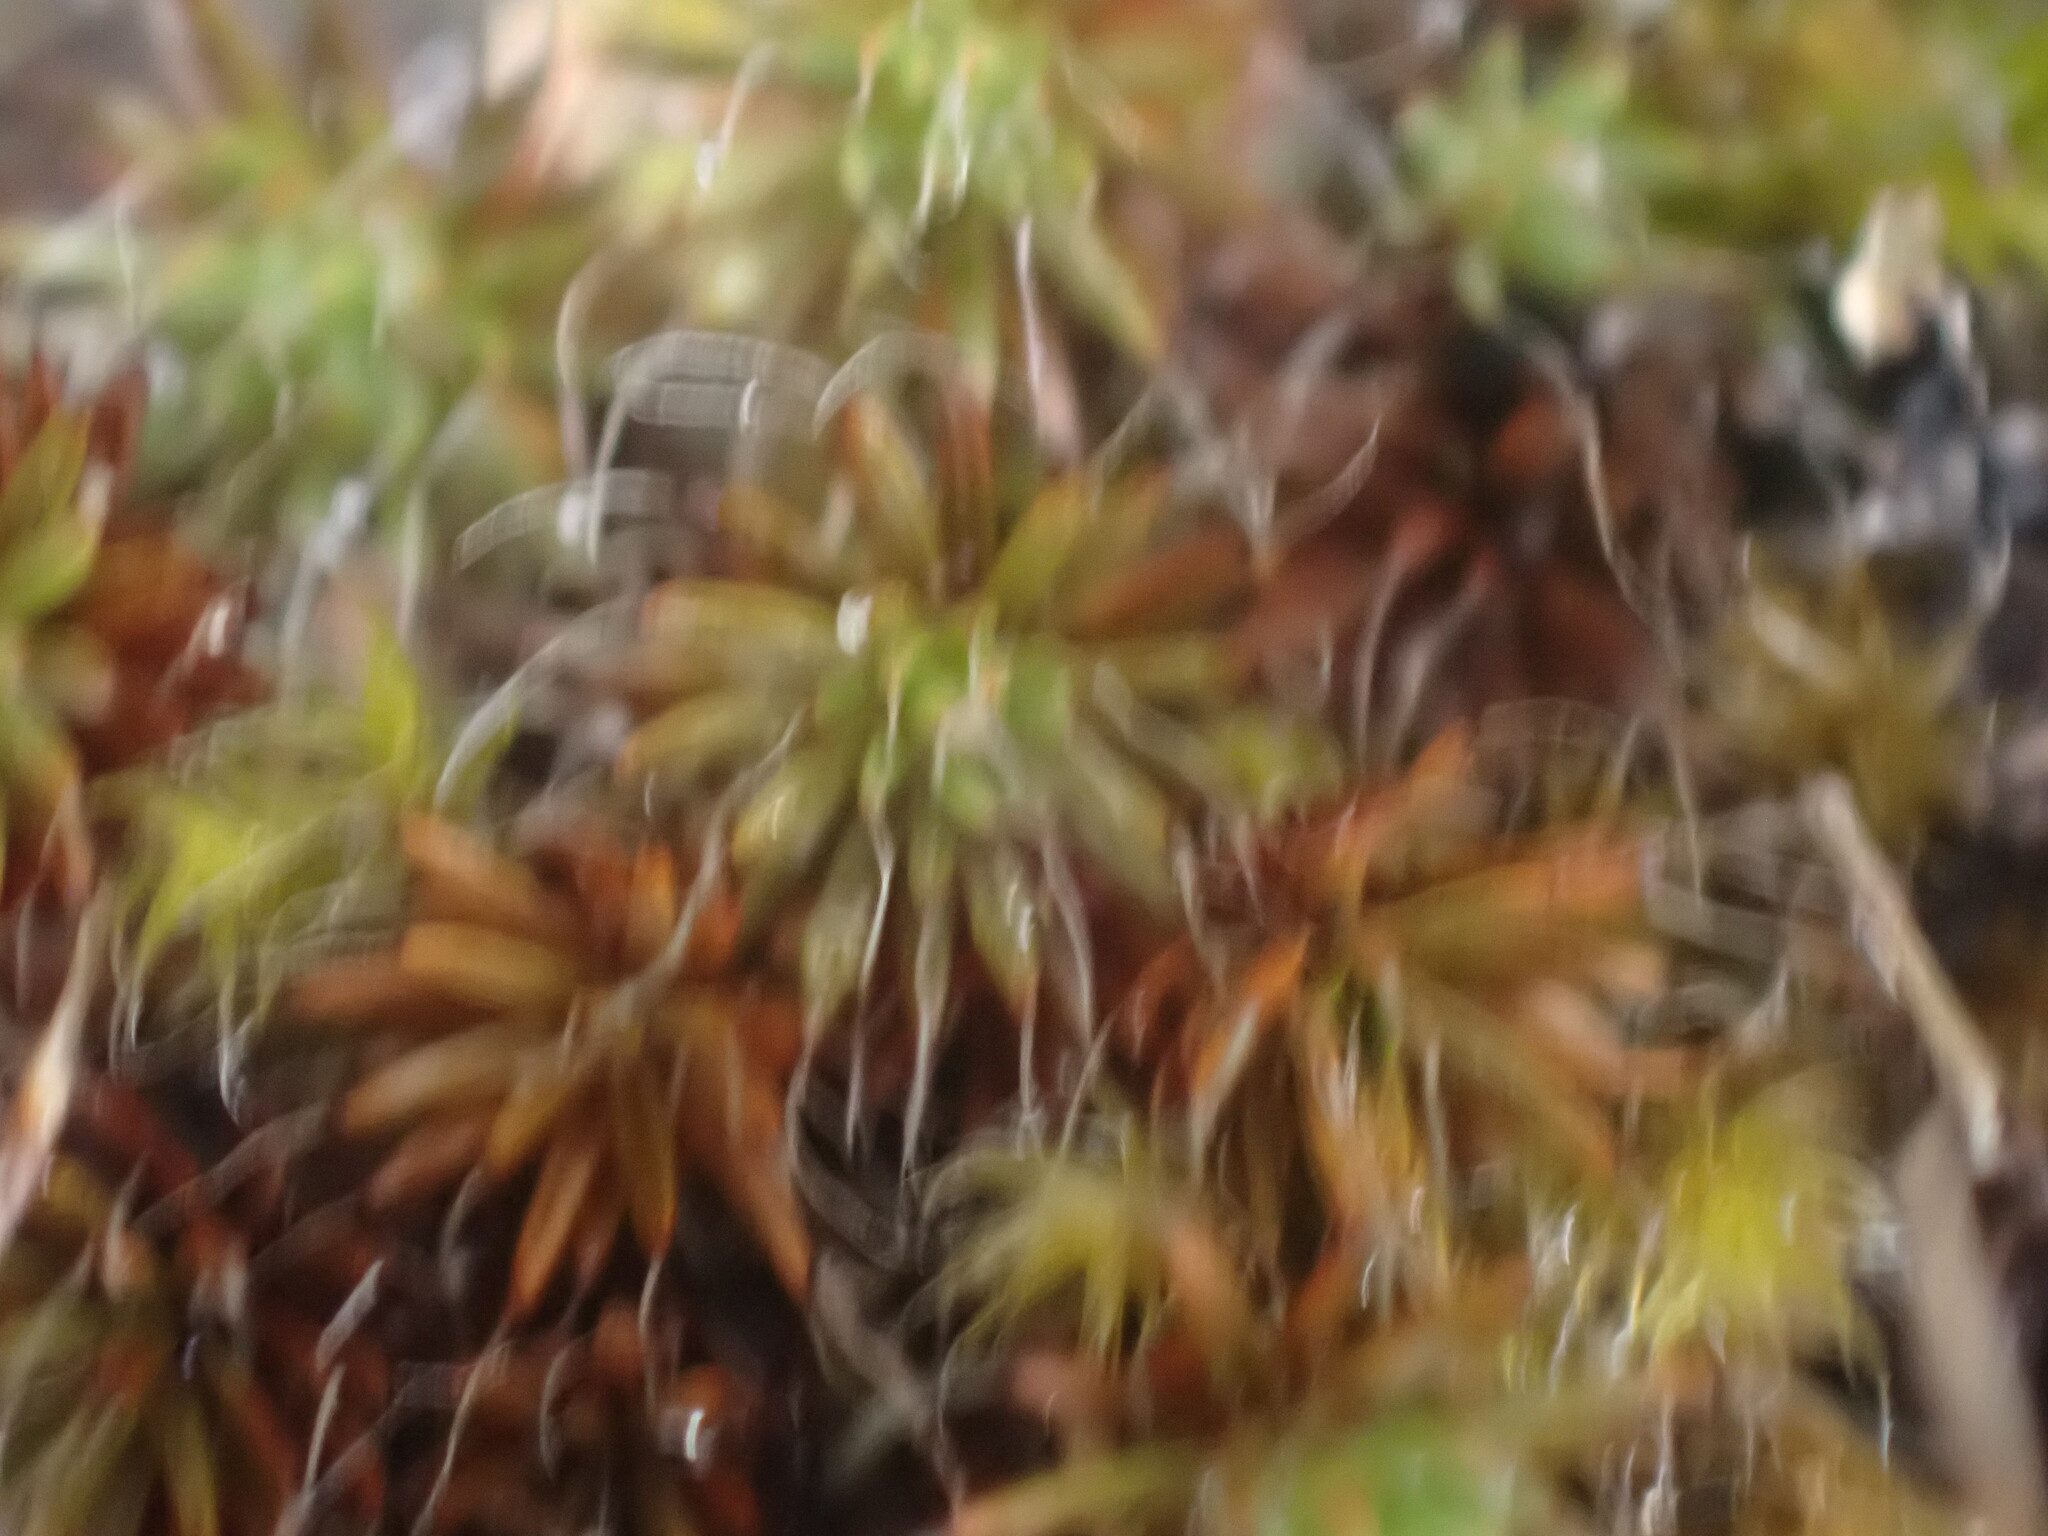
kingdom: Plantae
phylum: Bryophyta
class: Polytrichopsida
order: Polytrichales
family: Polytrichaceae
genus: Polytrichum
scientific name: Polytrichum piliferum
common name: Bristly haircap
